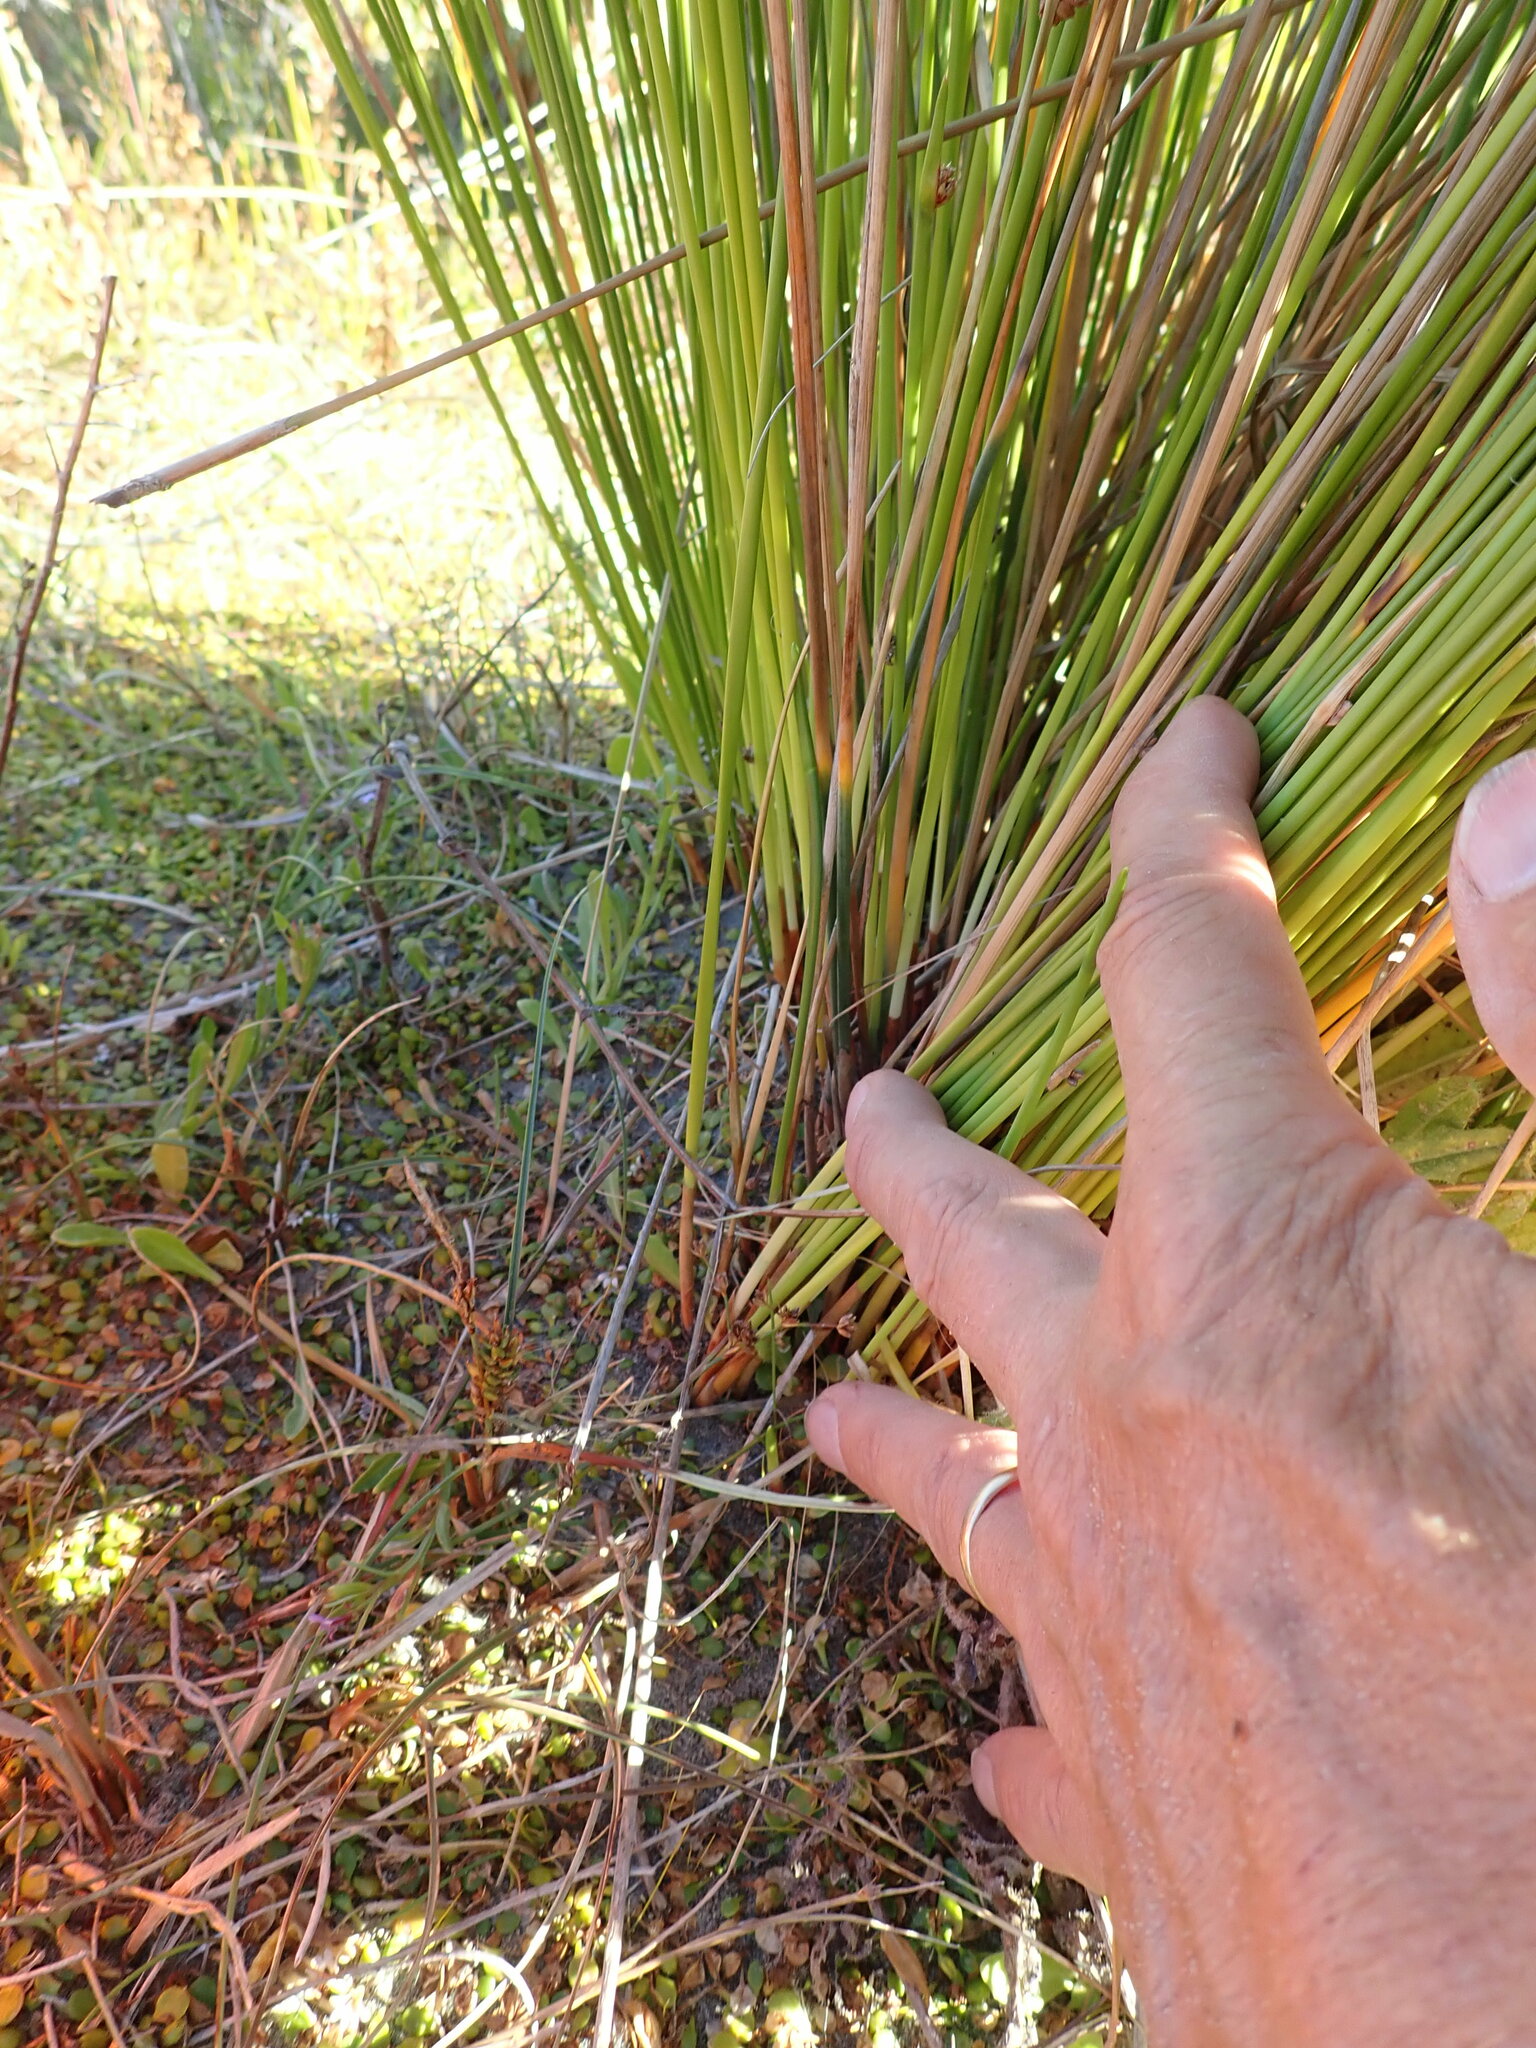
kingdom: Plantae
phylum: Tracheophyta
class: Liliopsida
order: Poales
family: Cyperaceae
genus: Carex
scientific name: Carex pumila
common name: Dwarf sedge
